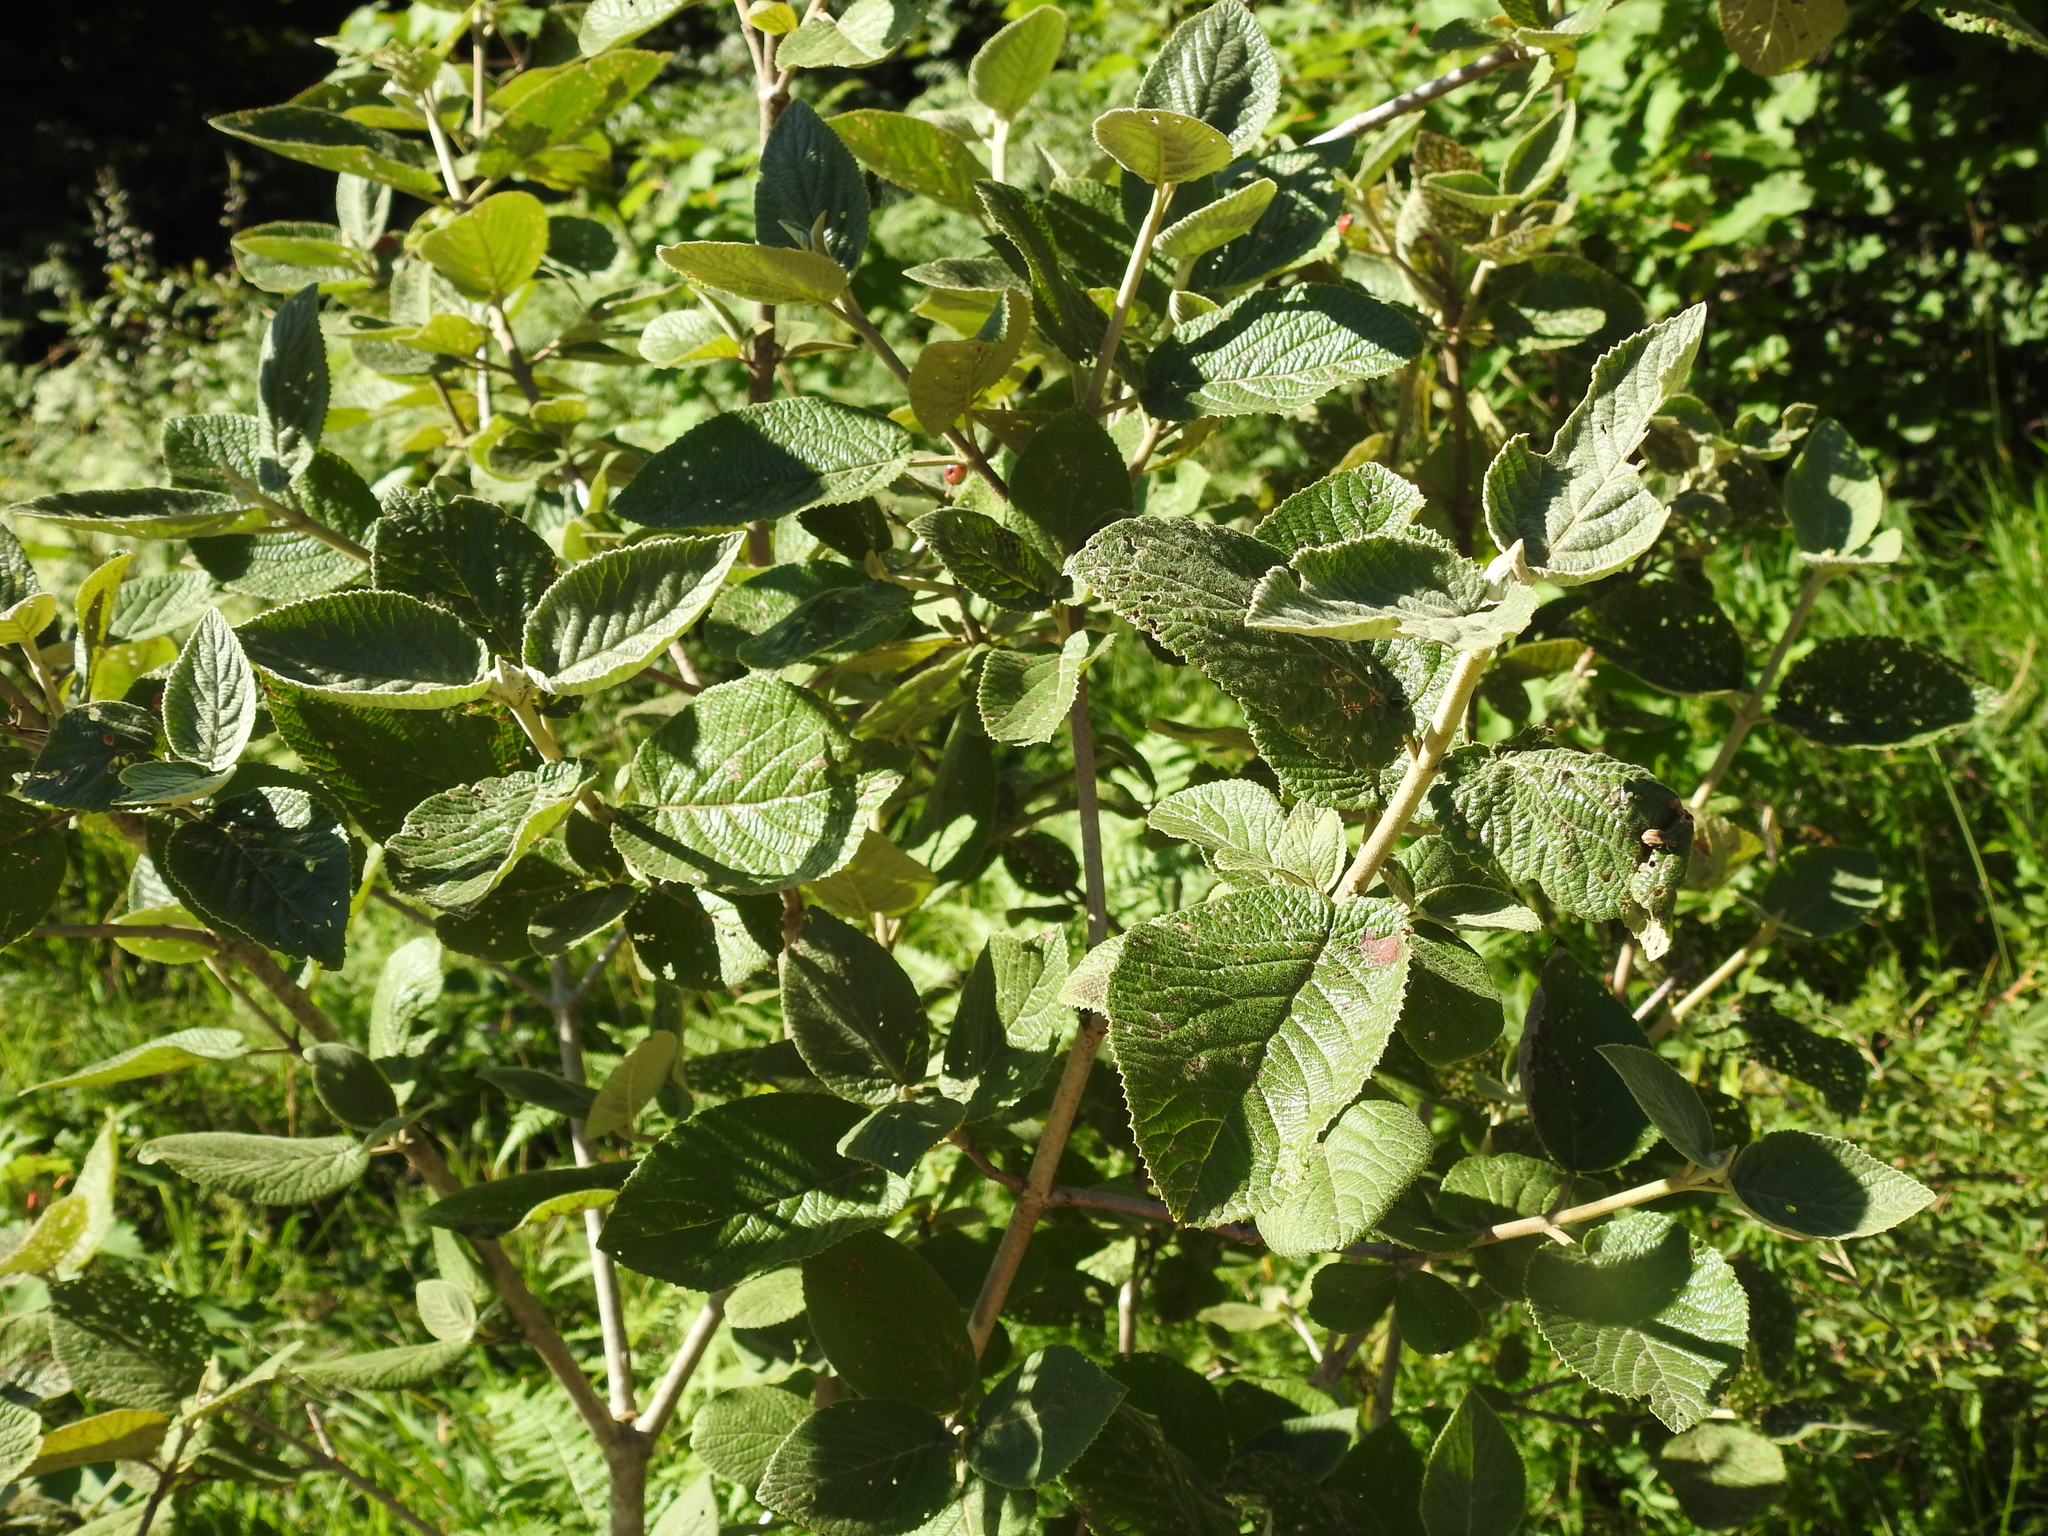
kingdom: Plantae
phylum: Tracheophyta
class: Magnoliopsida
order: Dipsacales
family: Viburnaceae
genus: Viburnum
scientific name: Viburnum lantana
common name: Wayfaring tree
